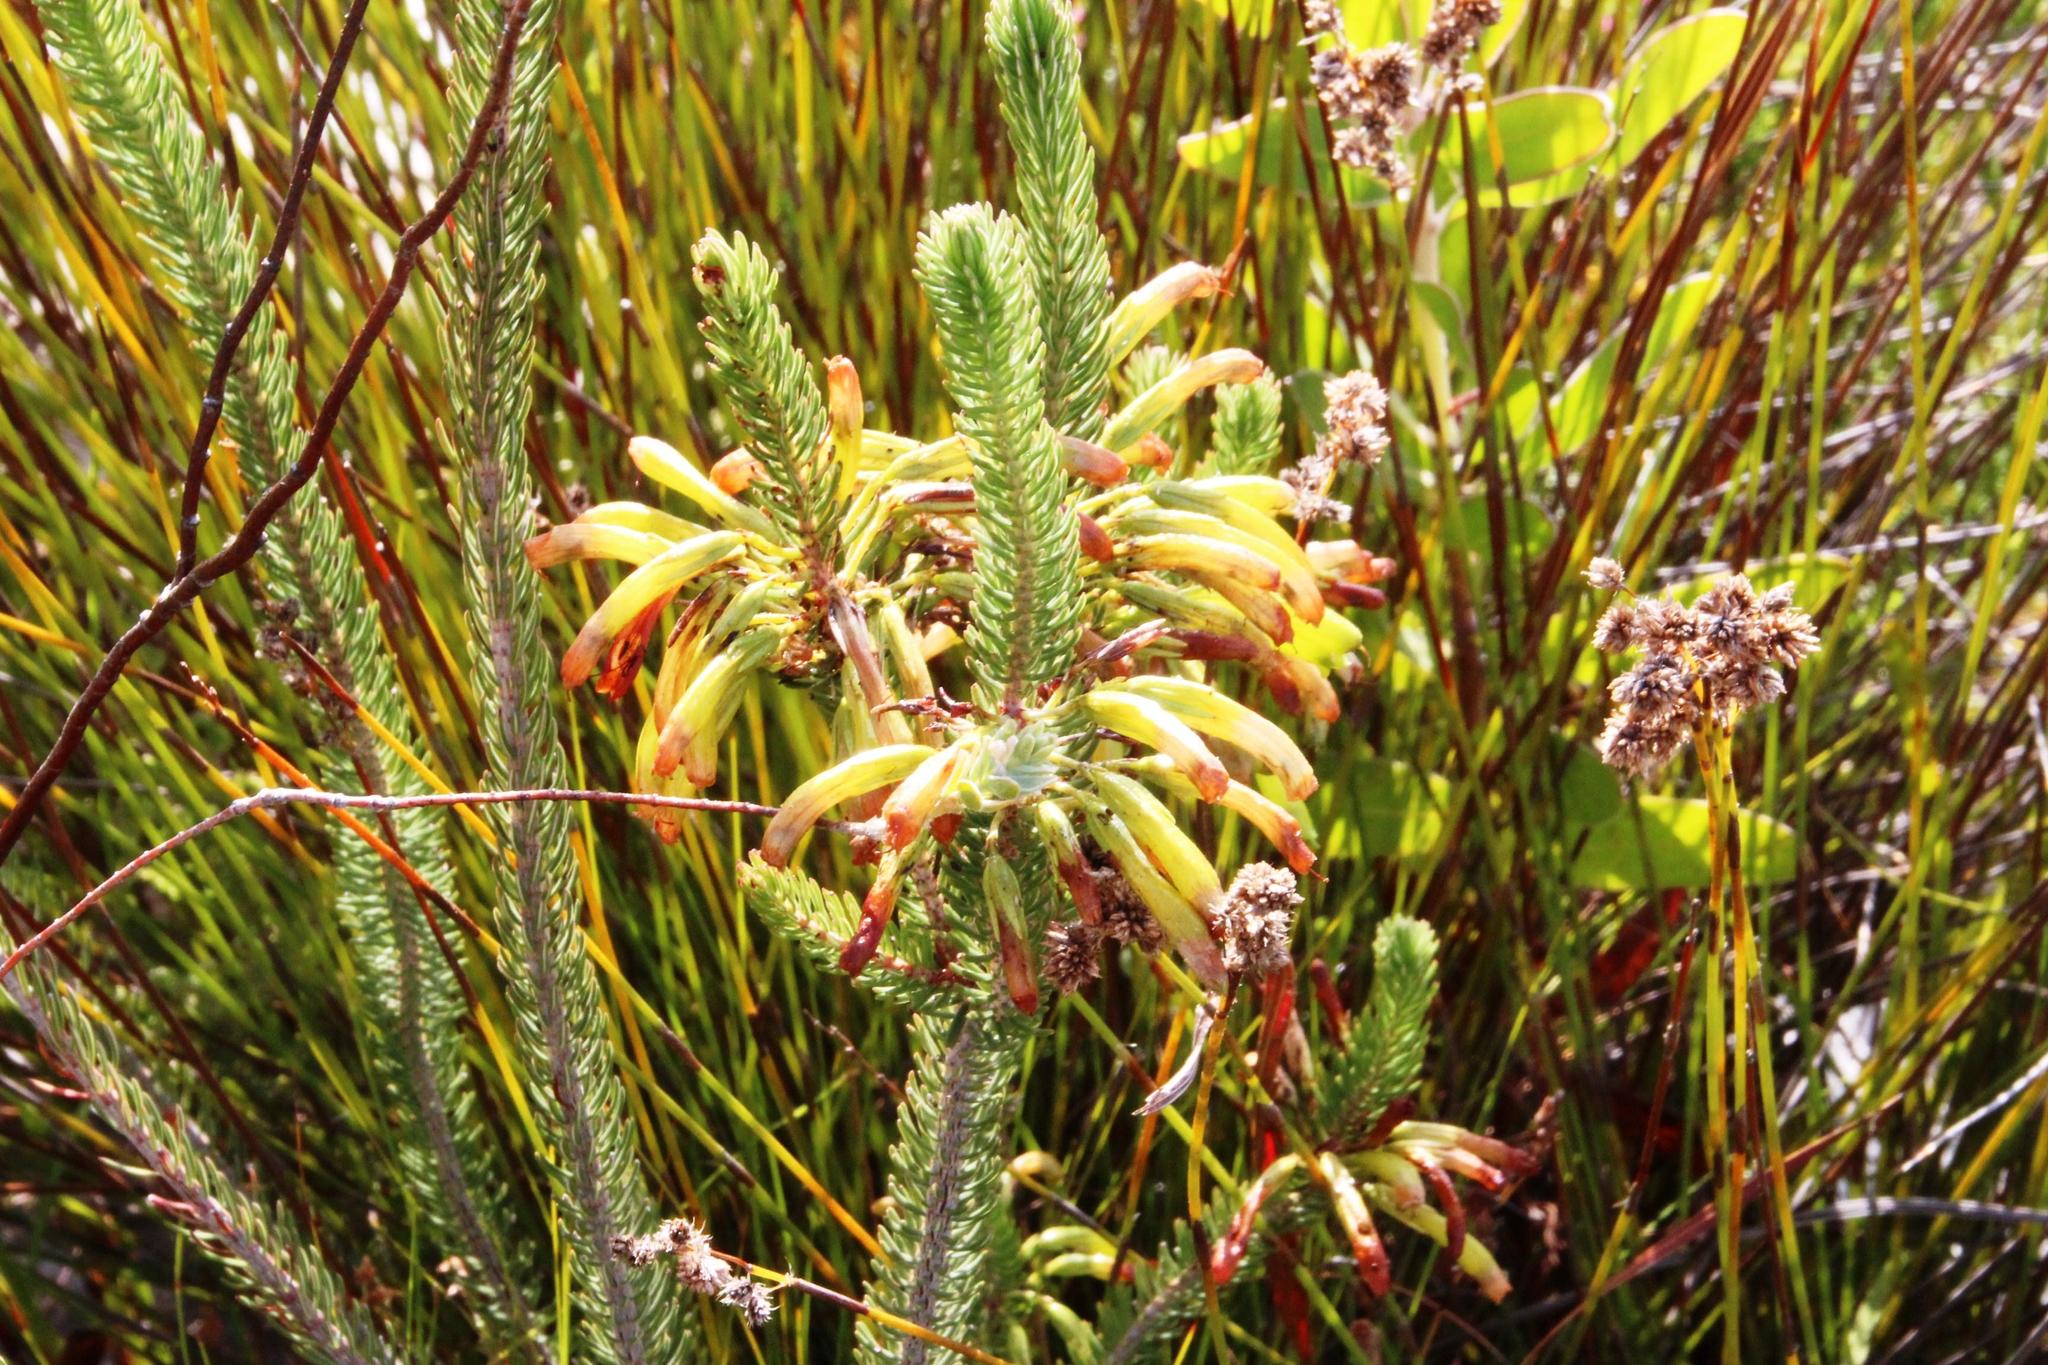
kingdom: Plantae
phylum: Tracheophyta
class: Magnoliopsida
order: Ericales
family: Ericaceae
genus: Erica
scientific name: Erica thomae
